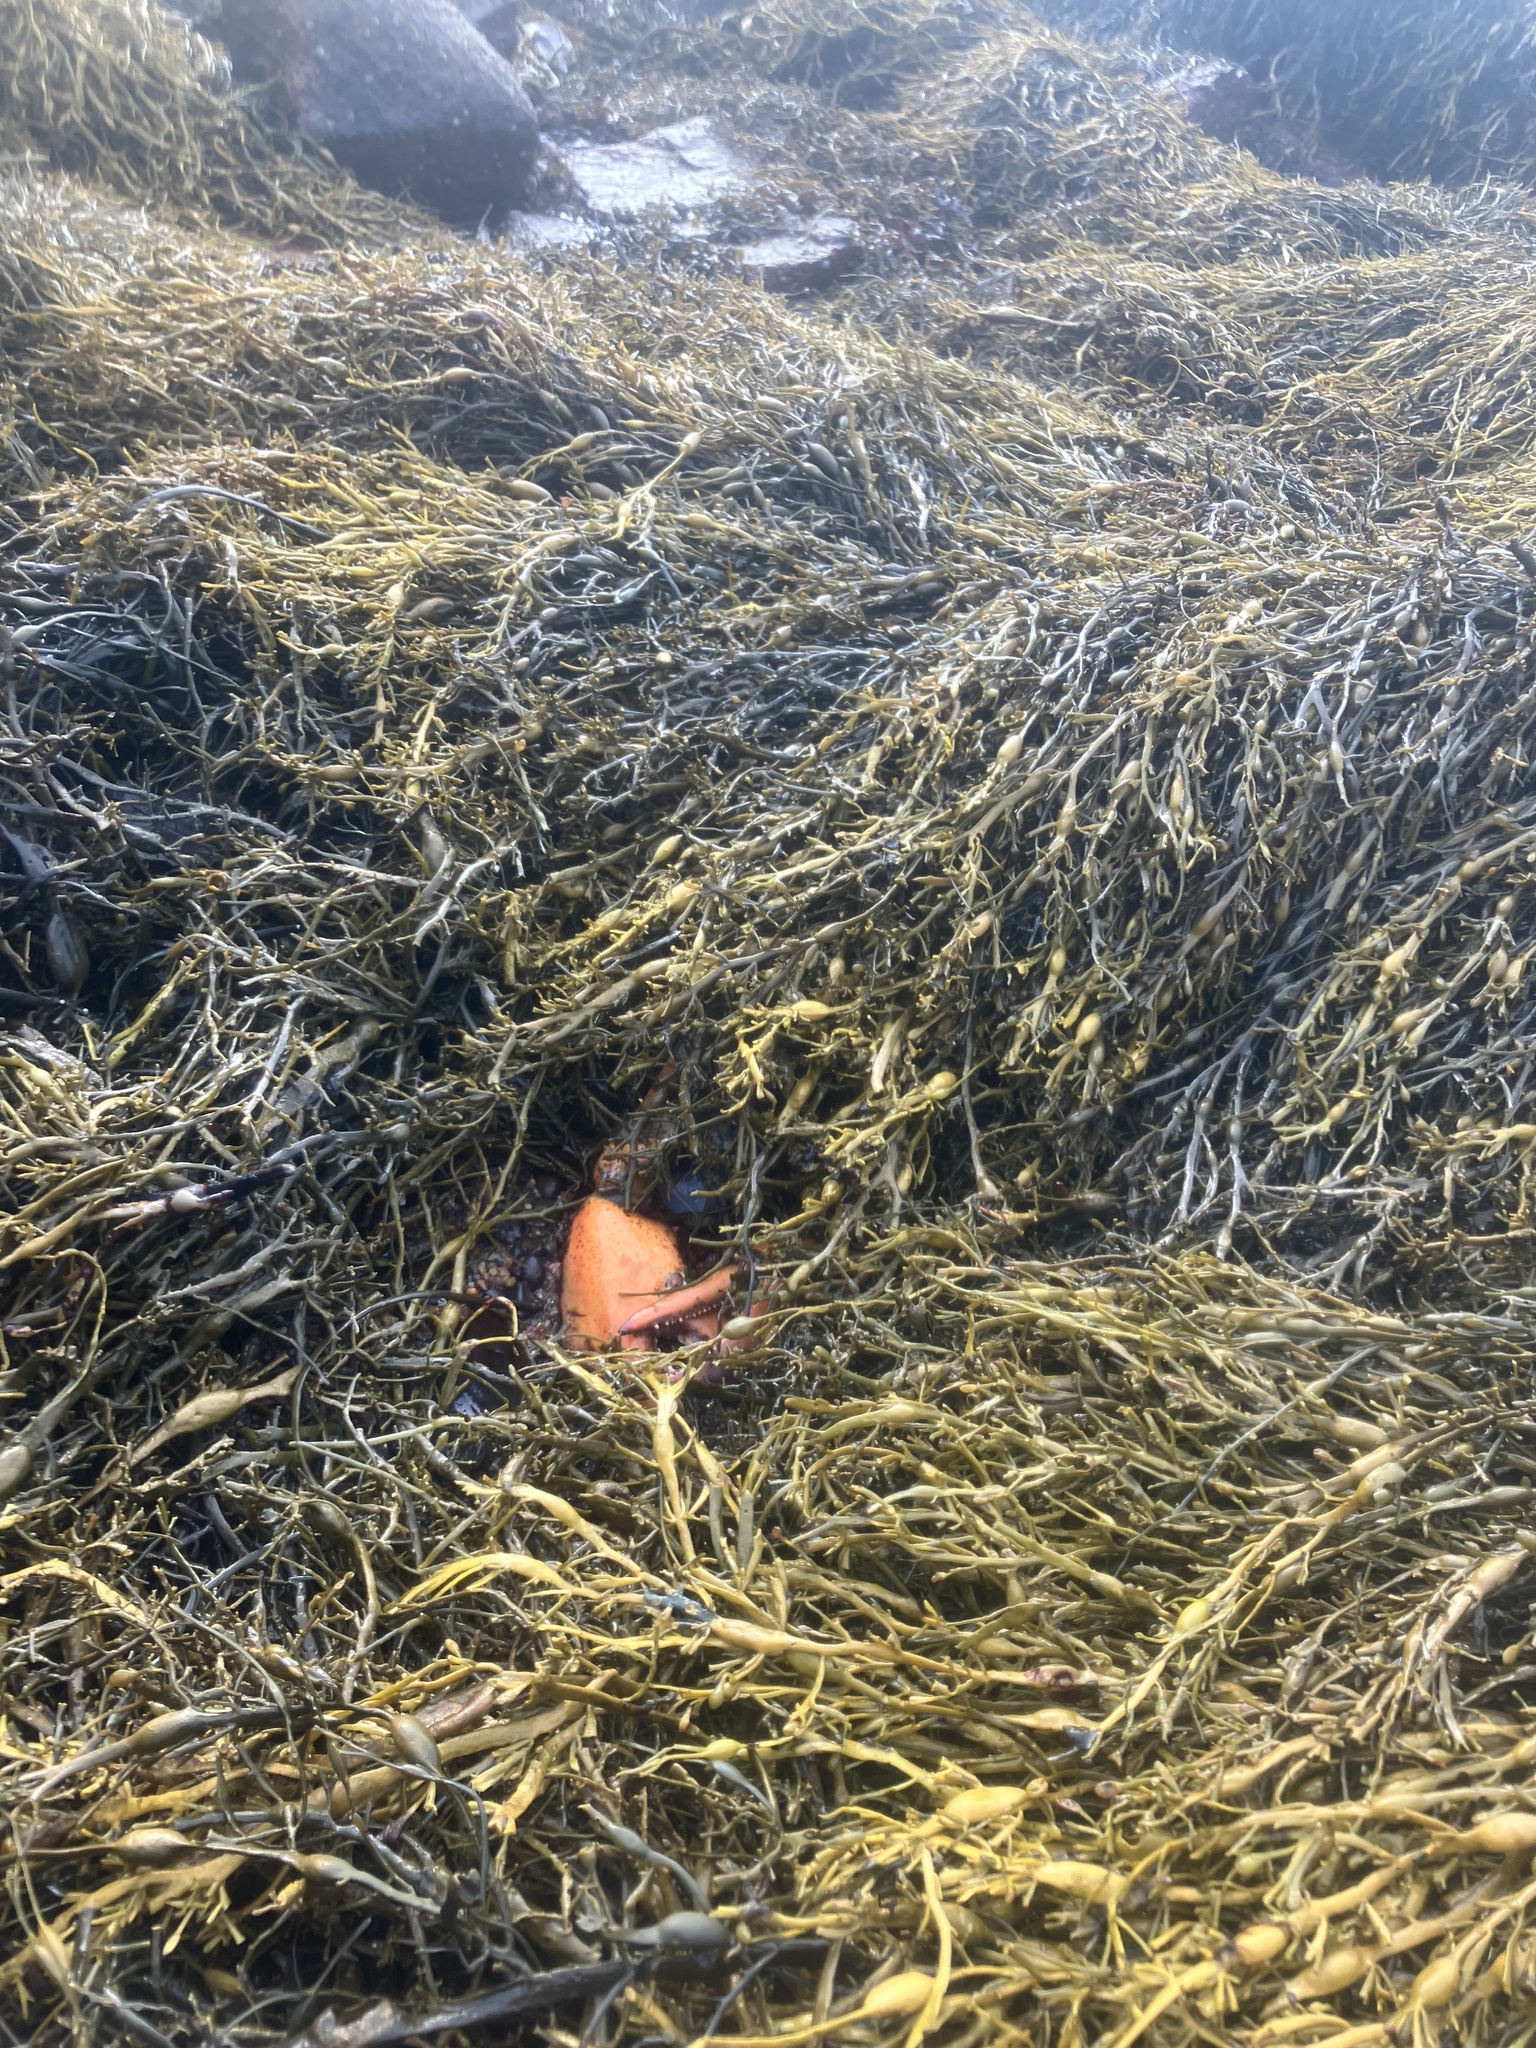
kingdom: Animalia
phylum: Arthropoda
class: Malacostraca
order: Decapoda
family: Nephropidae
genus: Homarus
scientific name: Homarus americanus
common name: American lobster
